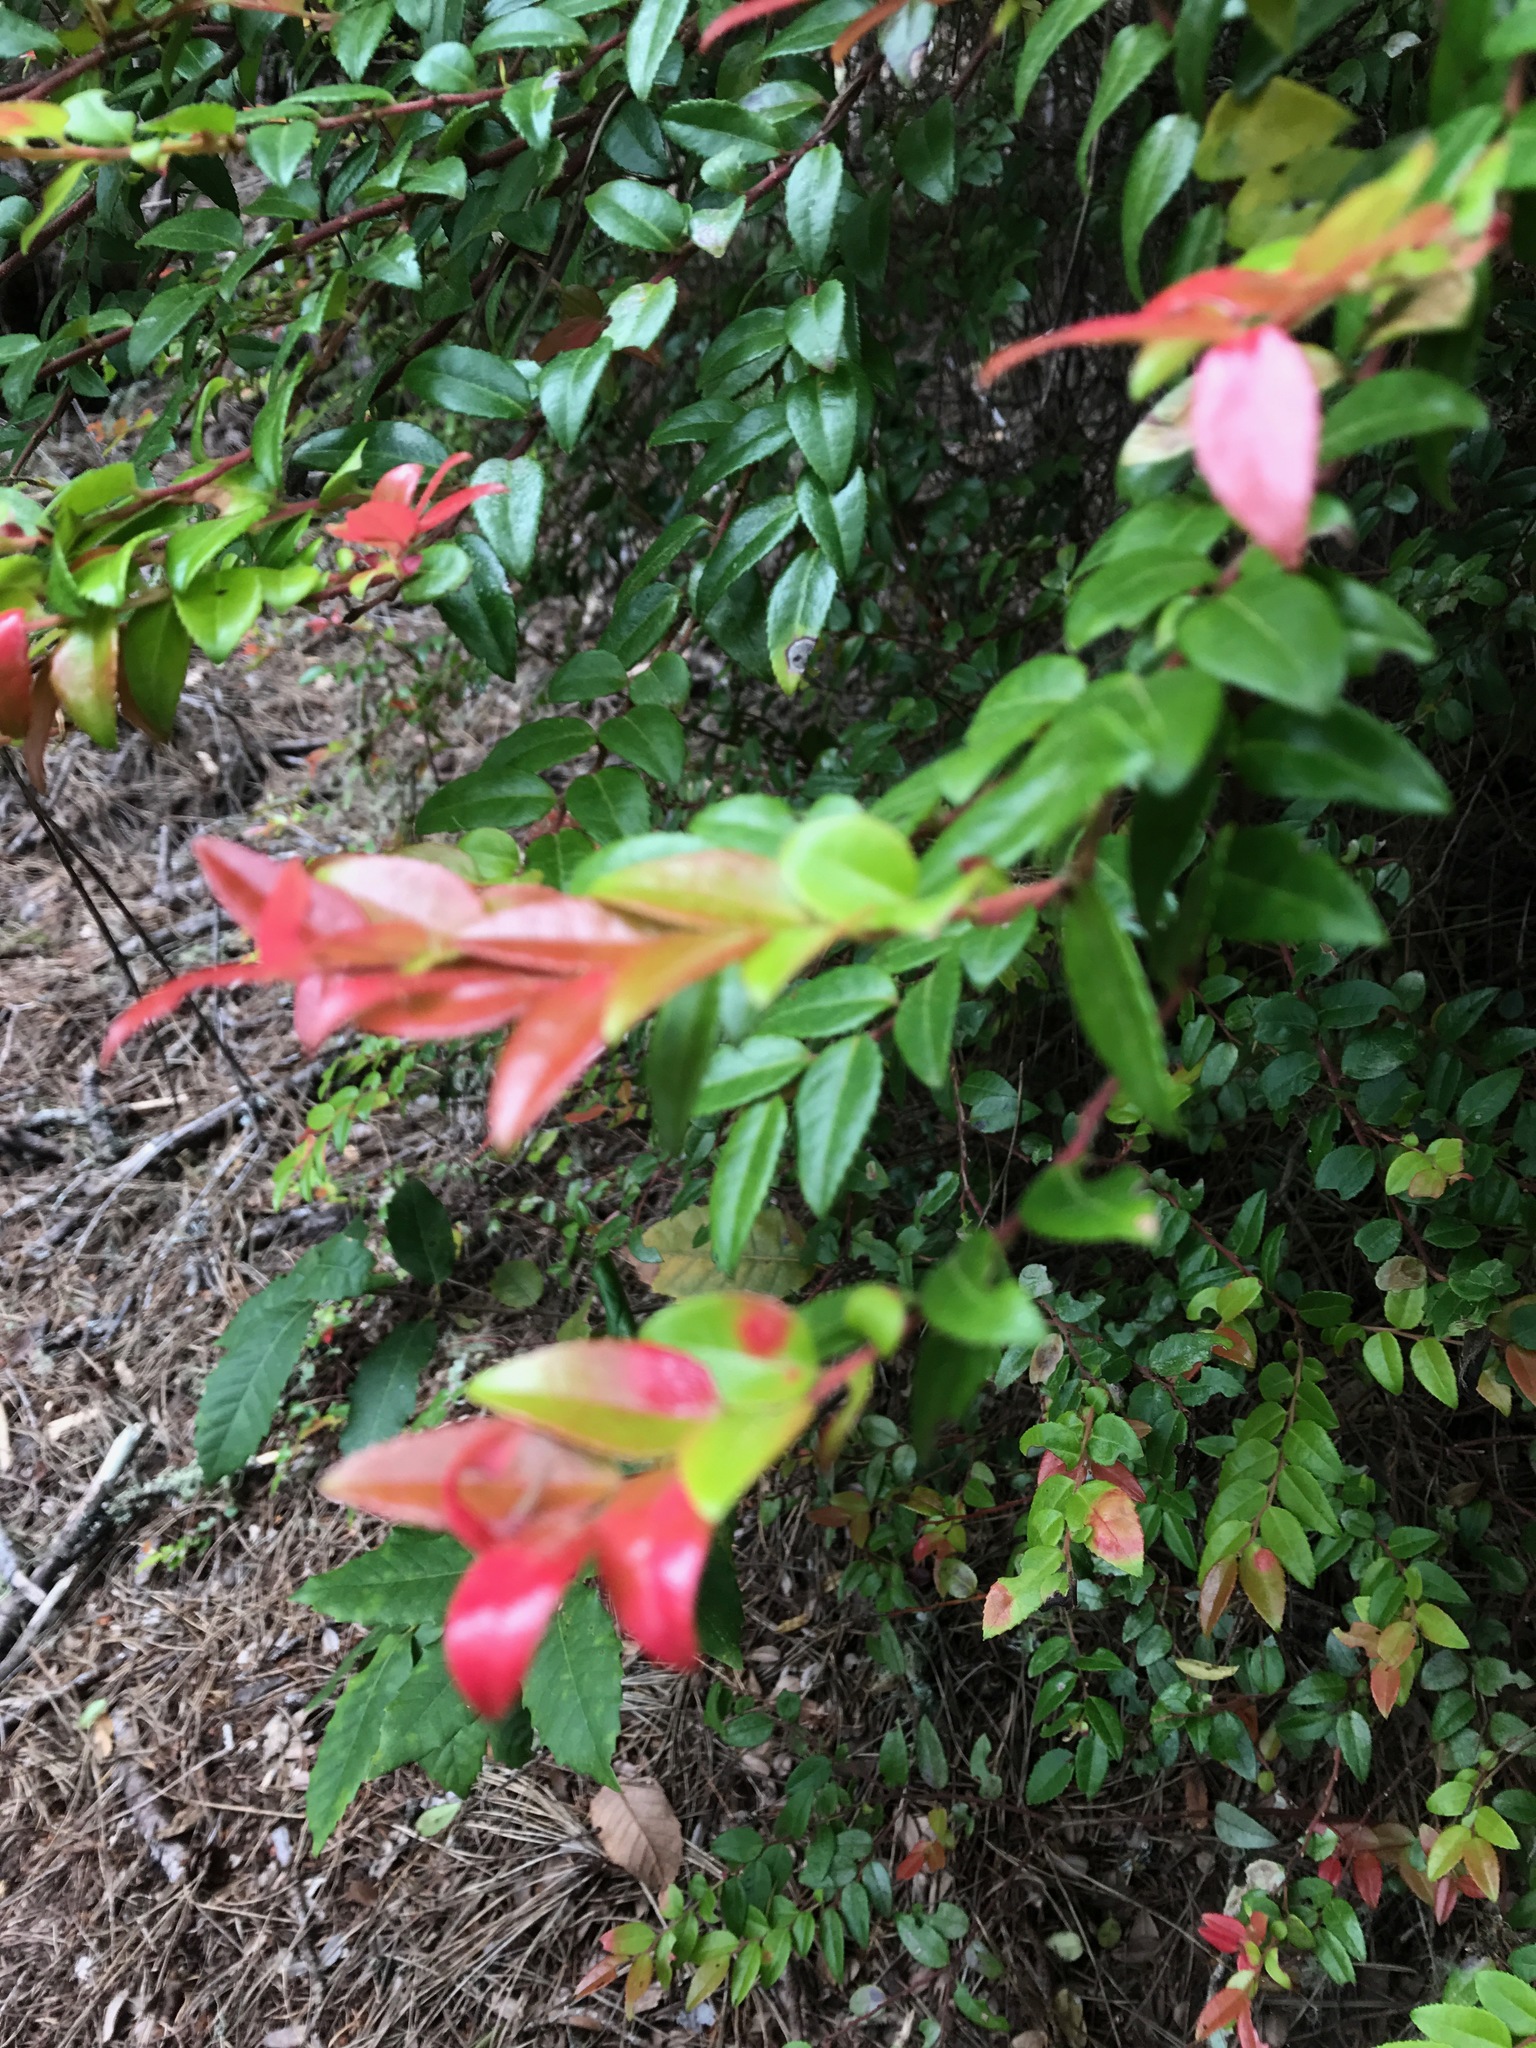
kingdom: Plantae
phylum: Tracheophyta
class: Magnoliopsida
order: Ericales
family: Ericaceae
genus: Vaccinium
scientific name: Vaccinium ovatum
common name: California-huckleberry
